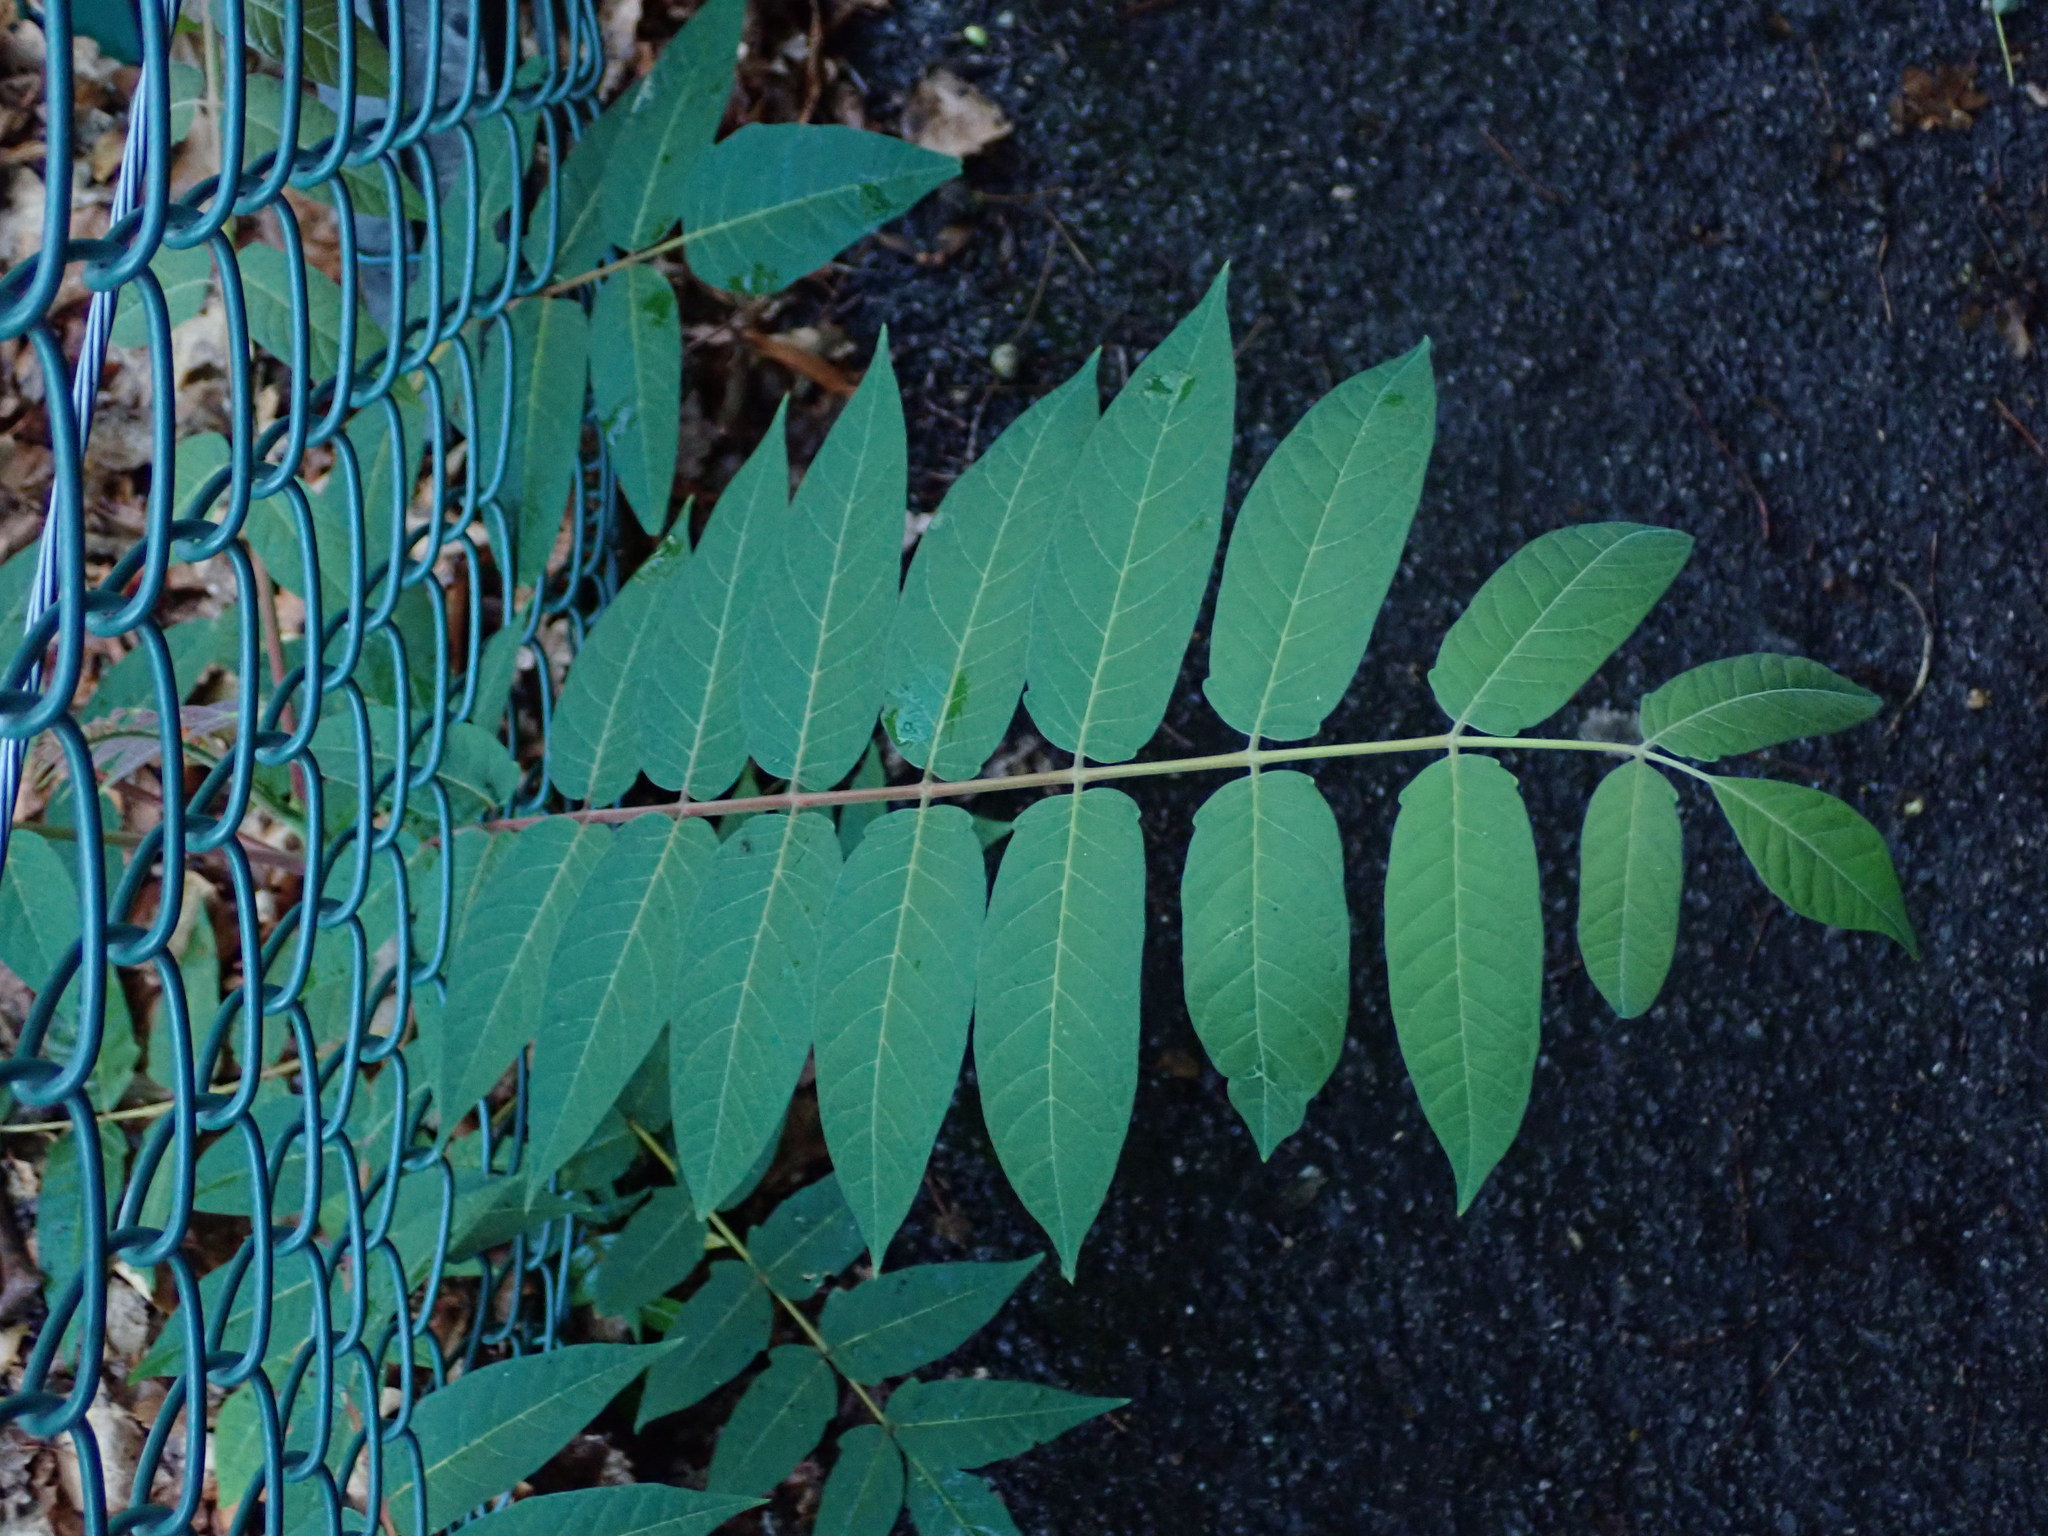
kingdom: Plantae
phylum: Tracheophyta
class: Magnoliopsida
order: Sapindales
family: Simaroubaceae
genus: Ailanthus
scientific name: Ailanthus altissima
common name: Tree-of-heaven
